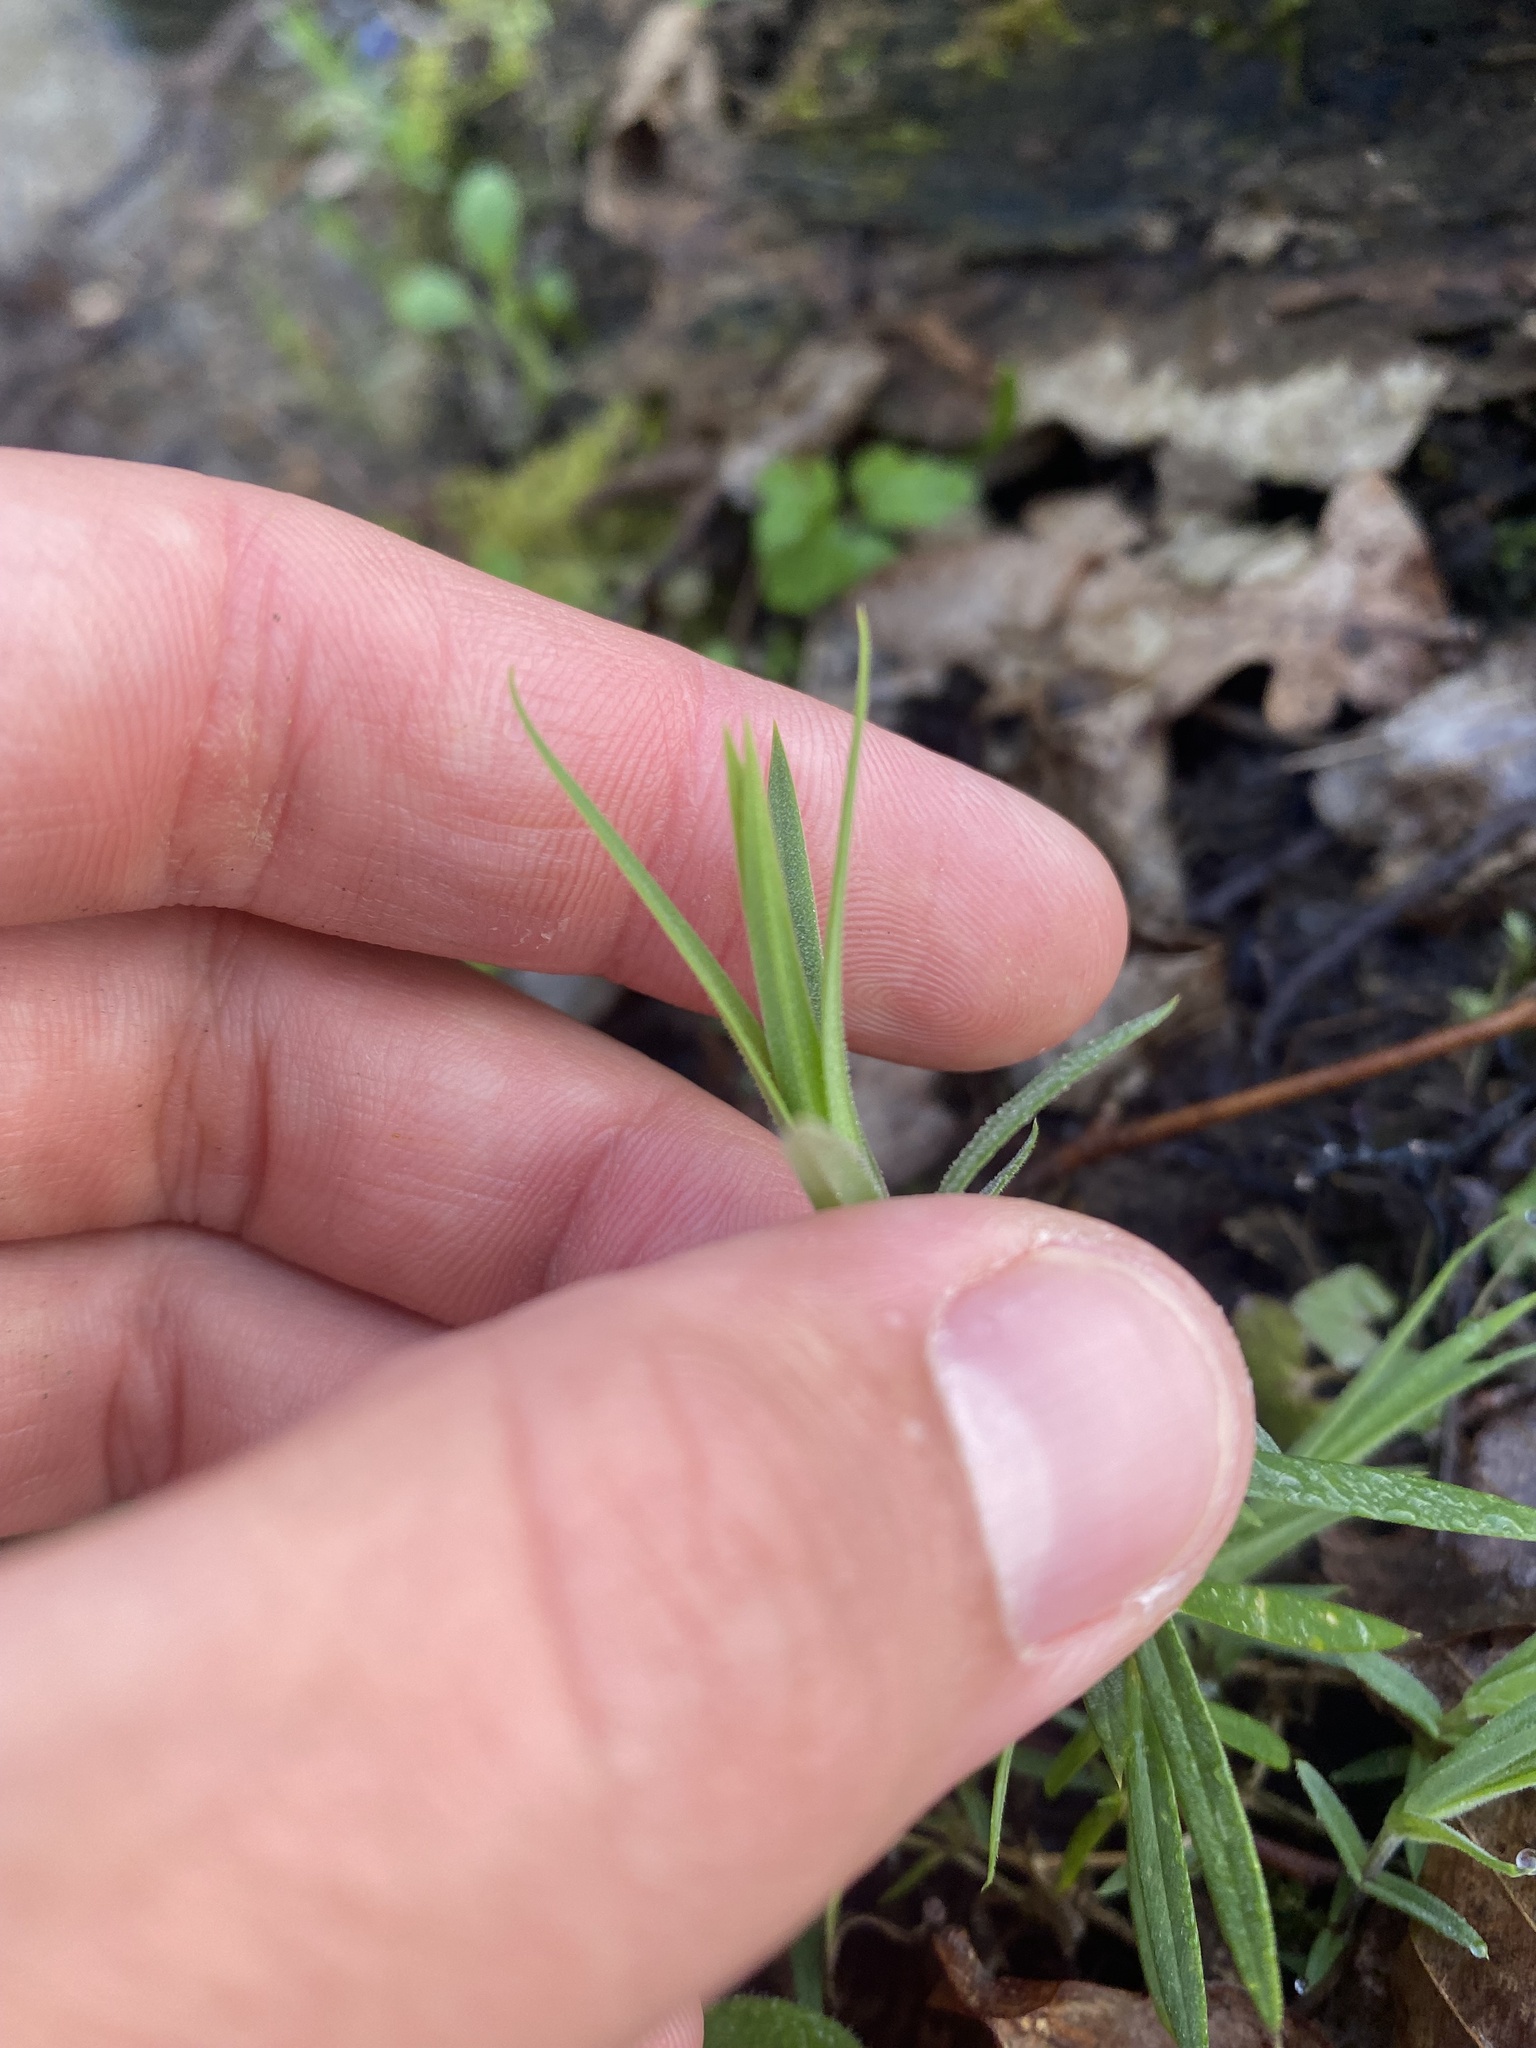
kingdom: Plantae
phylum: Tracheophyta
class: Magnoliopsida
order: Caryophyllales
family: Caryophyllaceae
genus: Rabelera
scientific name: Rabelera holostea
